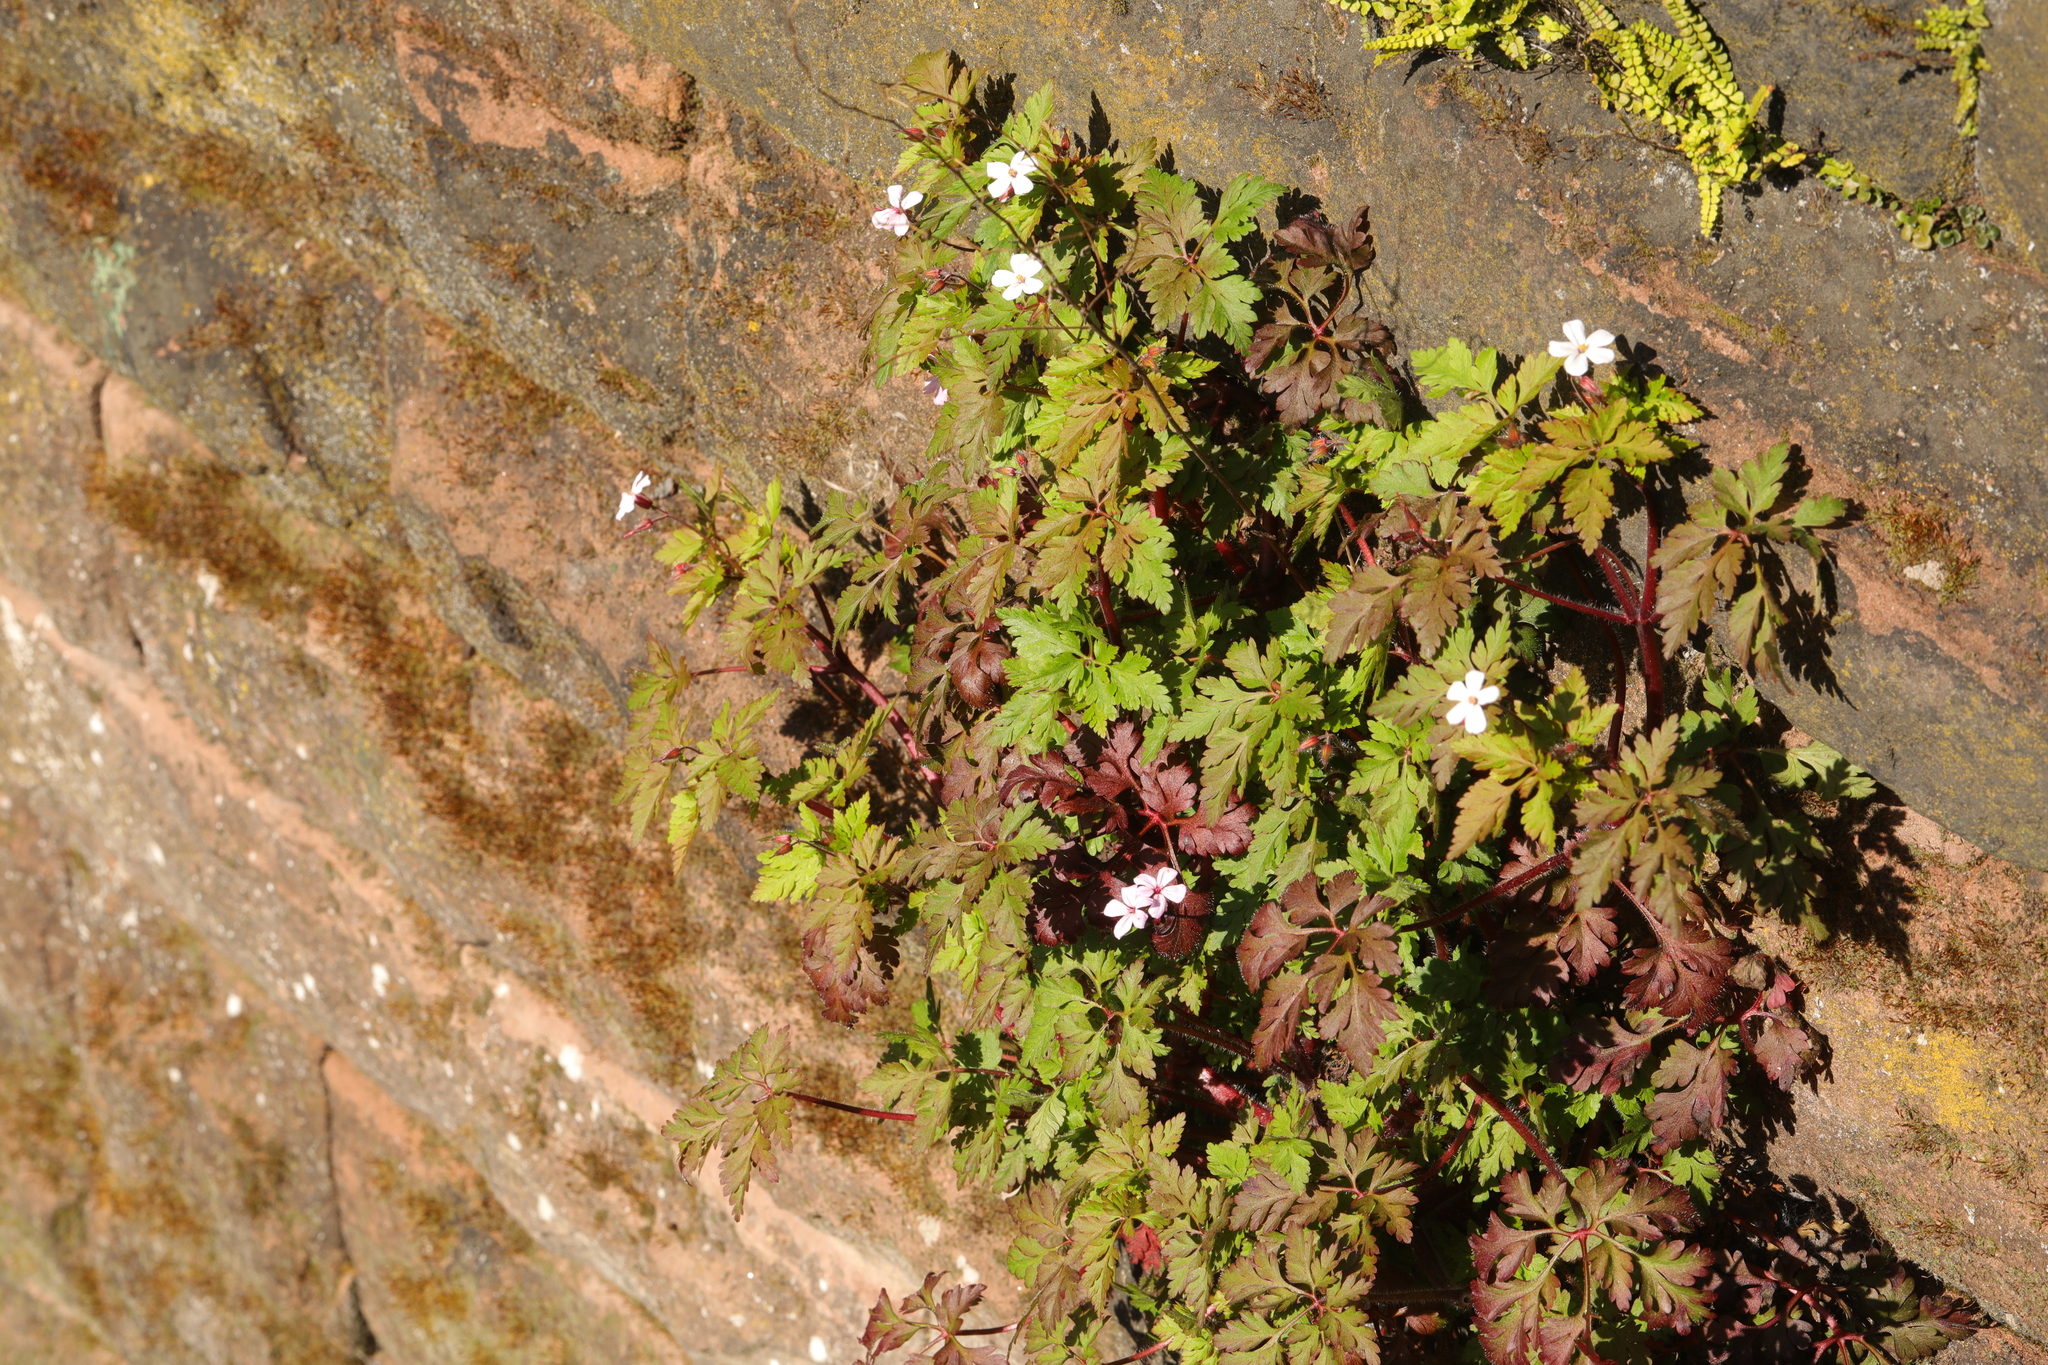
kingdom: Plantae
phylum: Tracheophyta
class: Magnoliopsida
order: Geraniales
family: Geraniaceae
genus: Geranium
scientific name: Geranium robertianum
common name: Herb-robert
